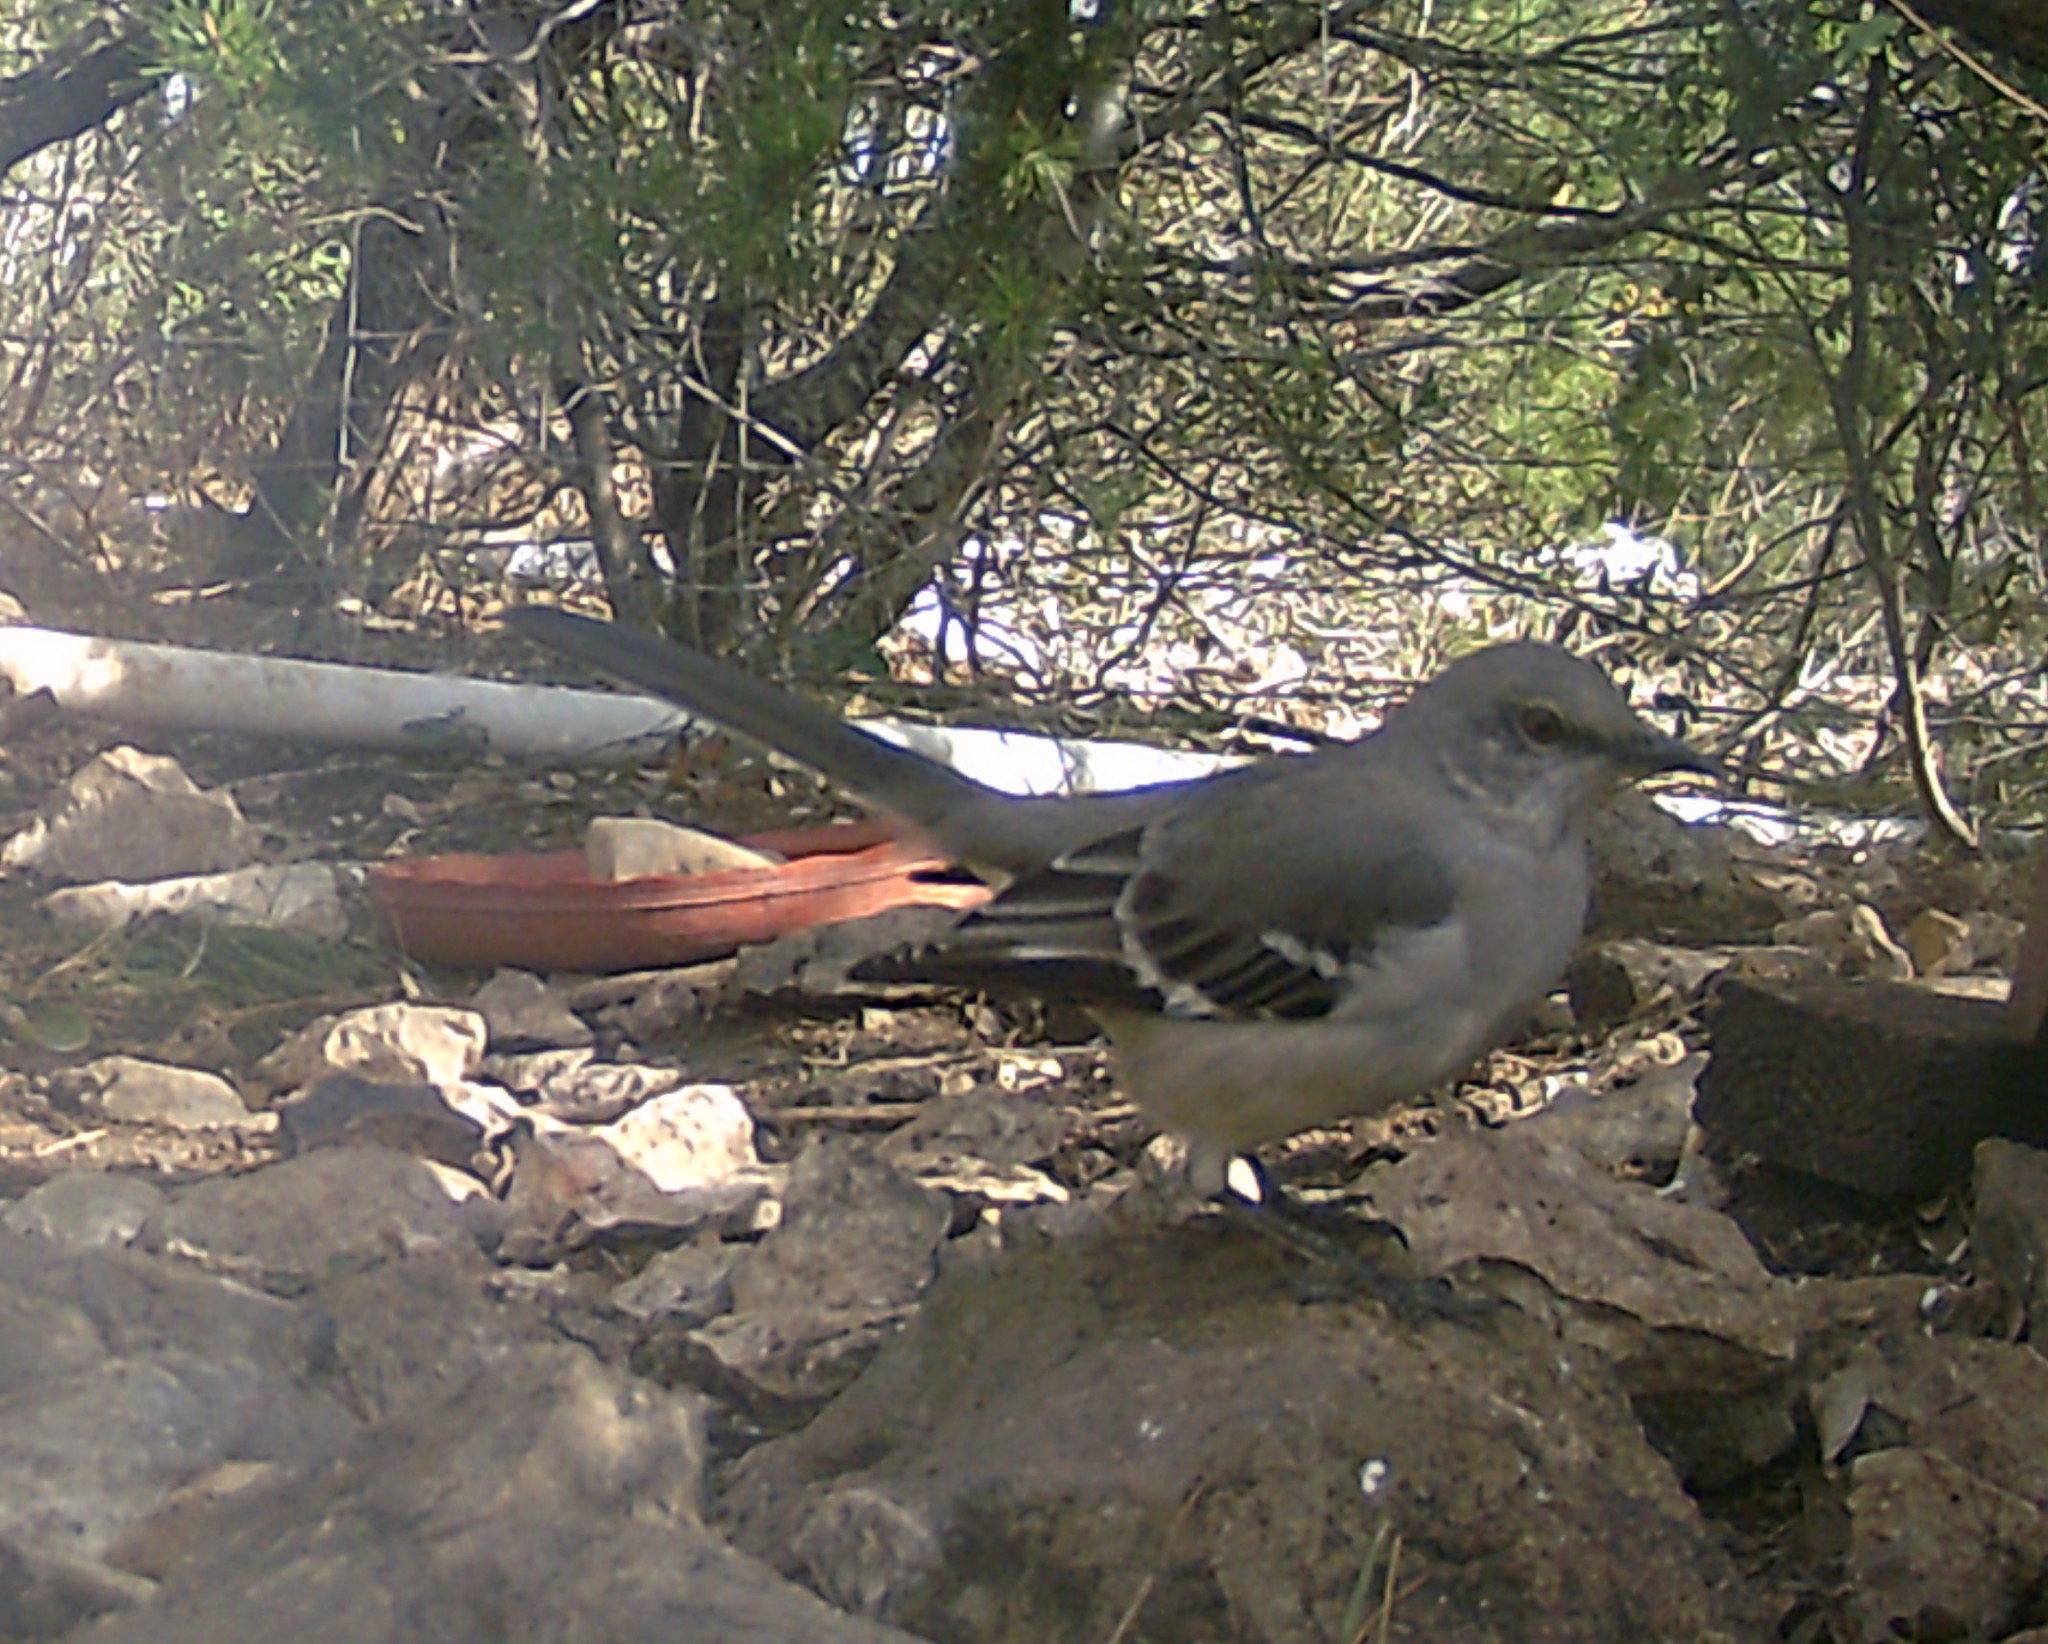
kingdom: Animalia
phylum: Chordata
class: Aves
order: Passeriformes
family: Mimidae
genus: Mimus
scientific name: Mimus polyglottos
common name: Northern mockingbird
